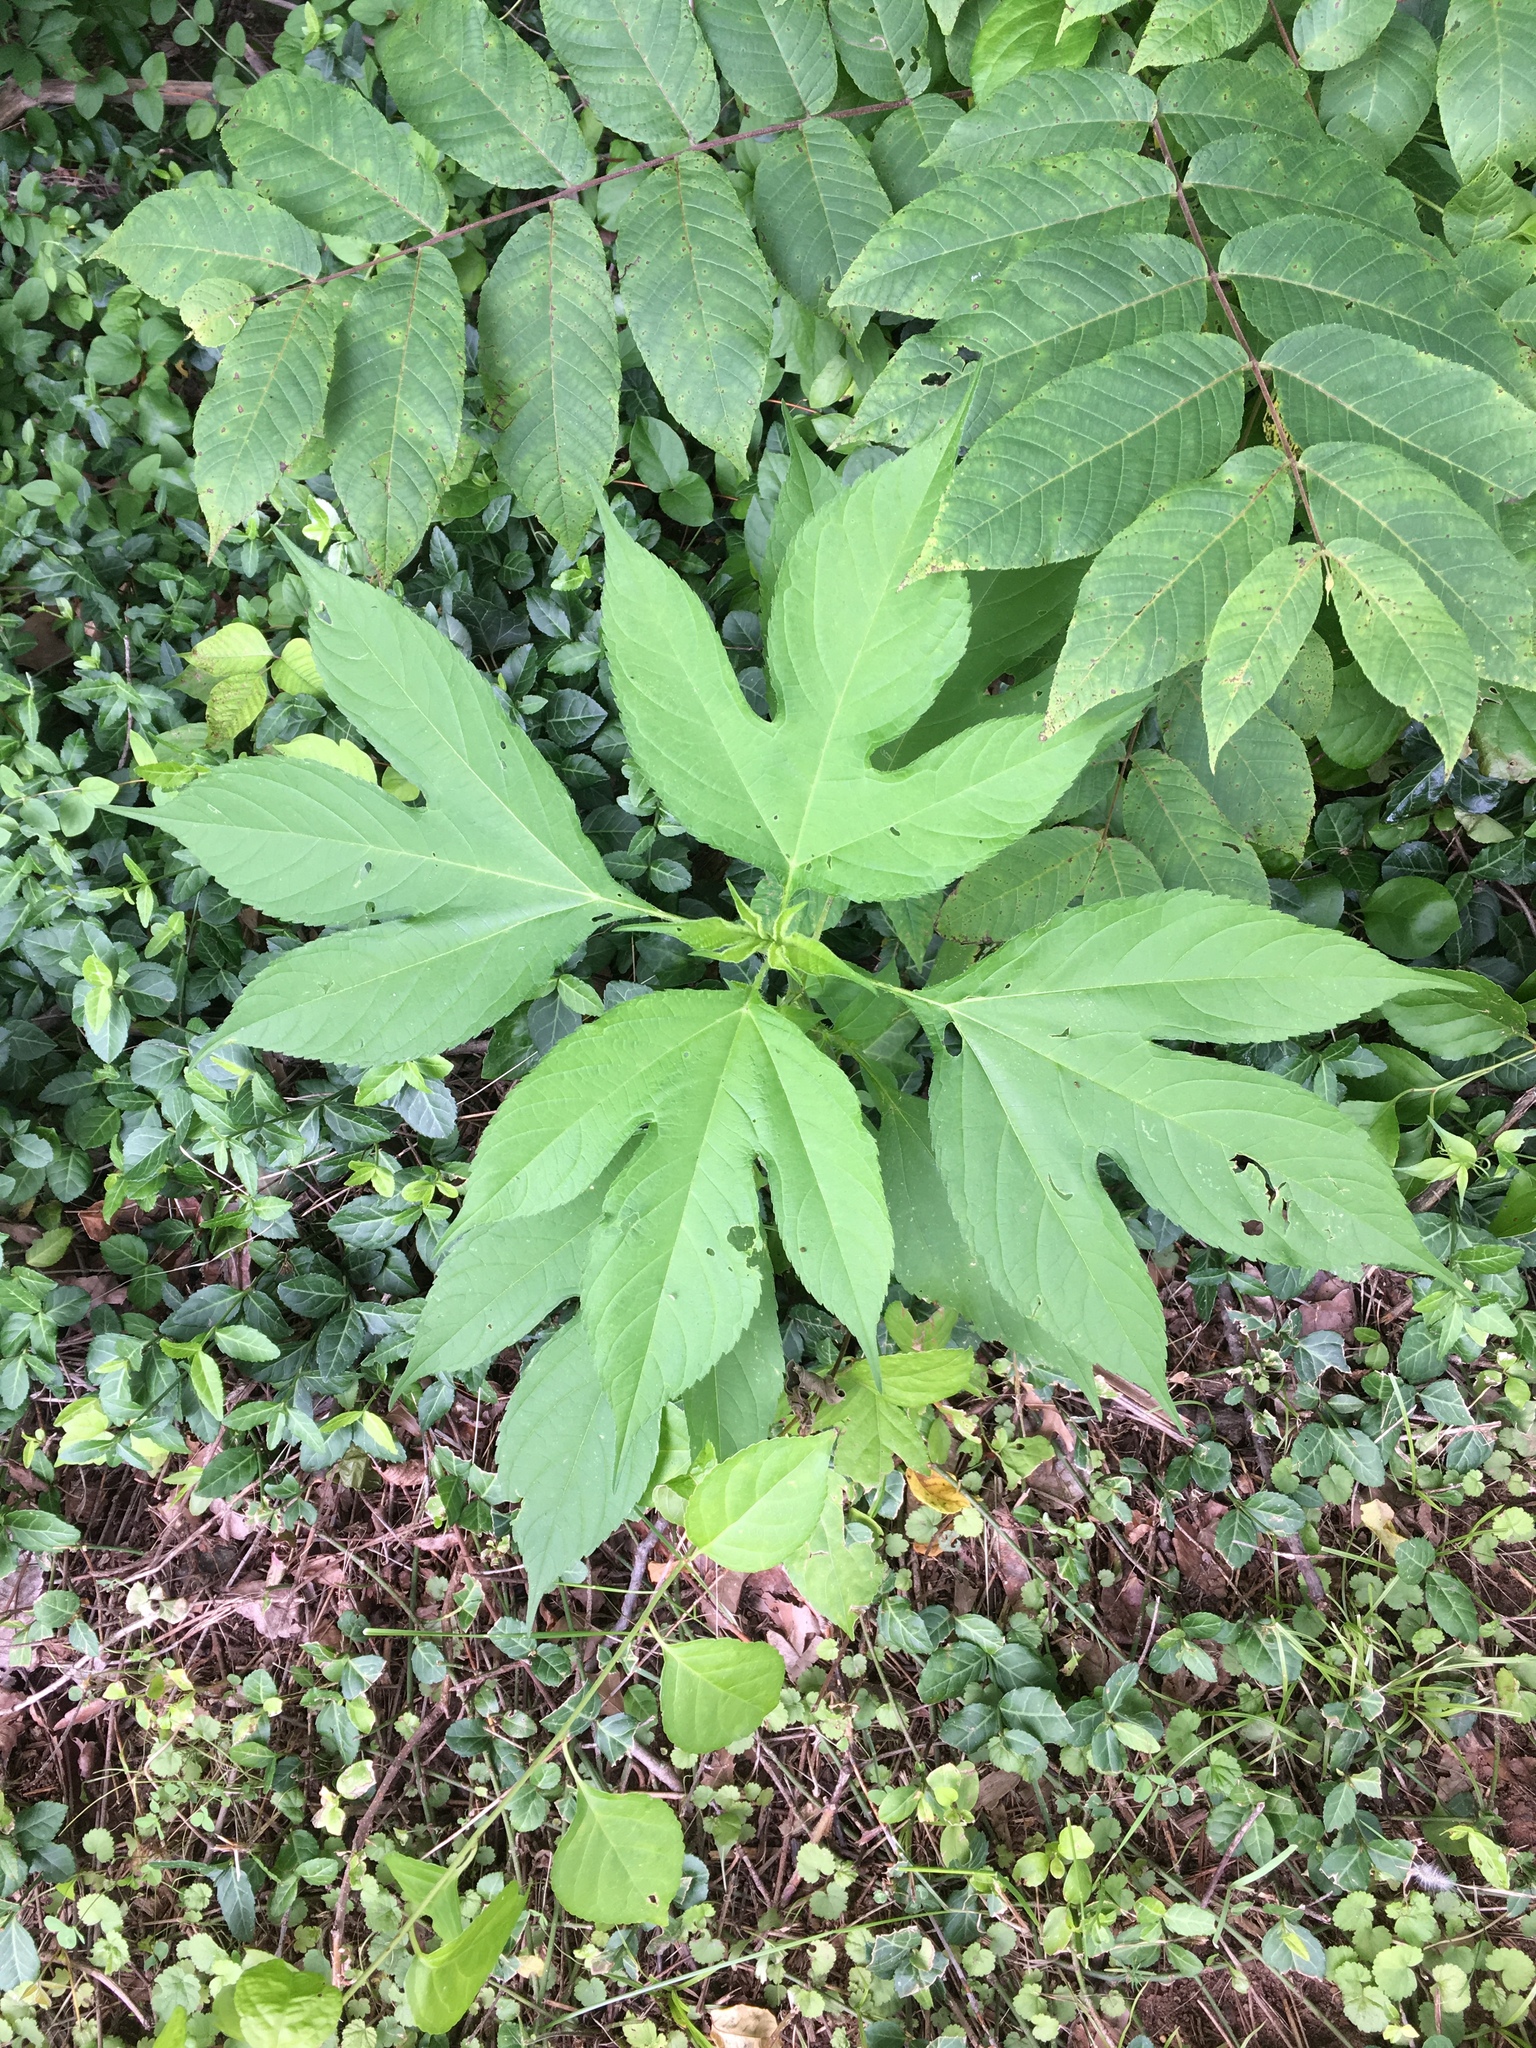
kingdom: Plantae
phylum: Tracheophyta
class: Magnoliopsida
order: Asterales
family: Asteraceae
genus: Ambrosia
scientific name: Ambrosia trifida
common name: Giant ragweed
